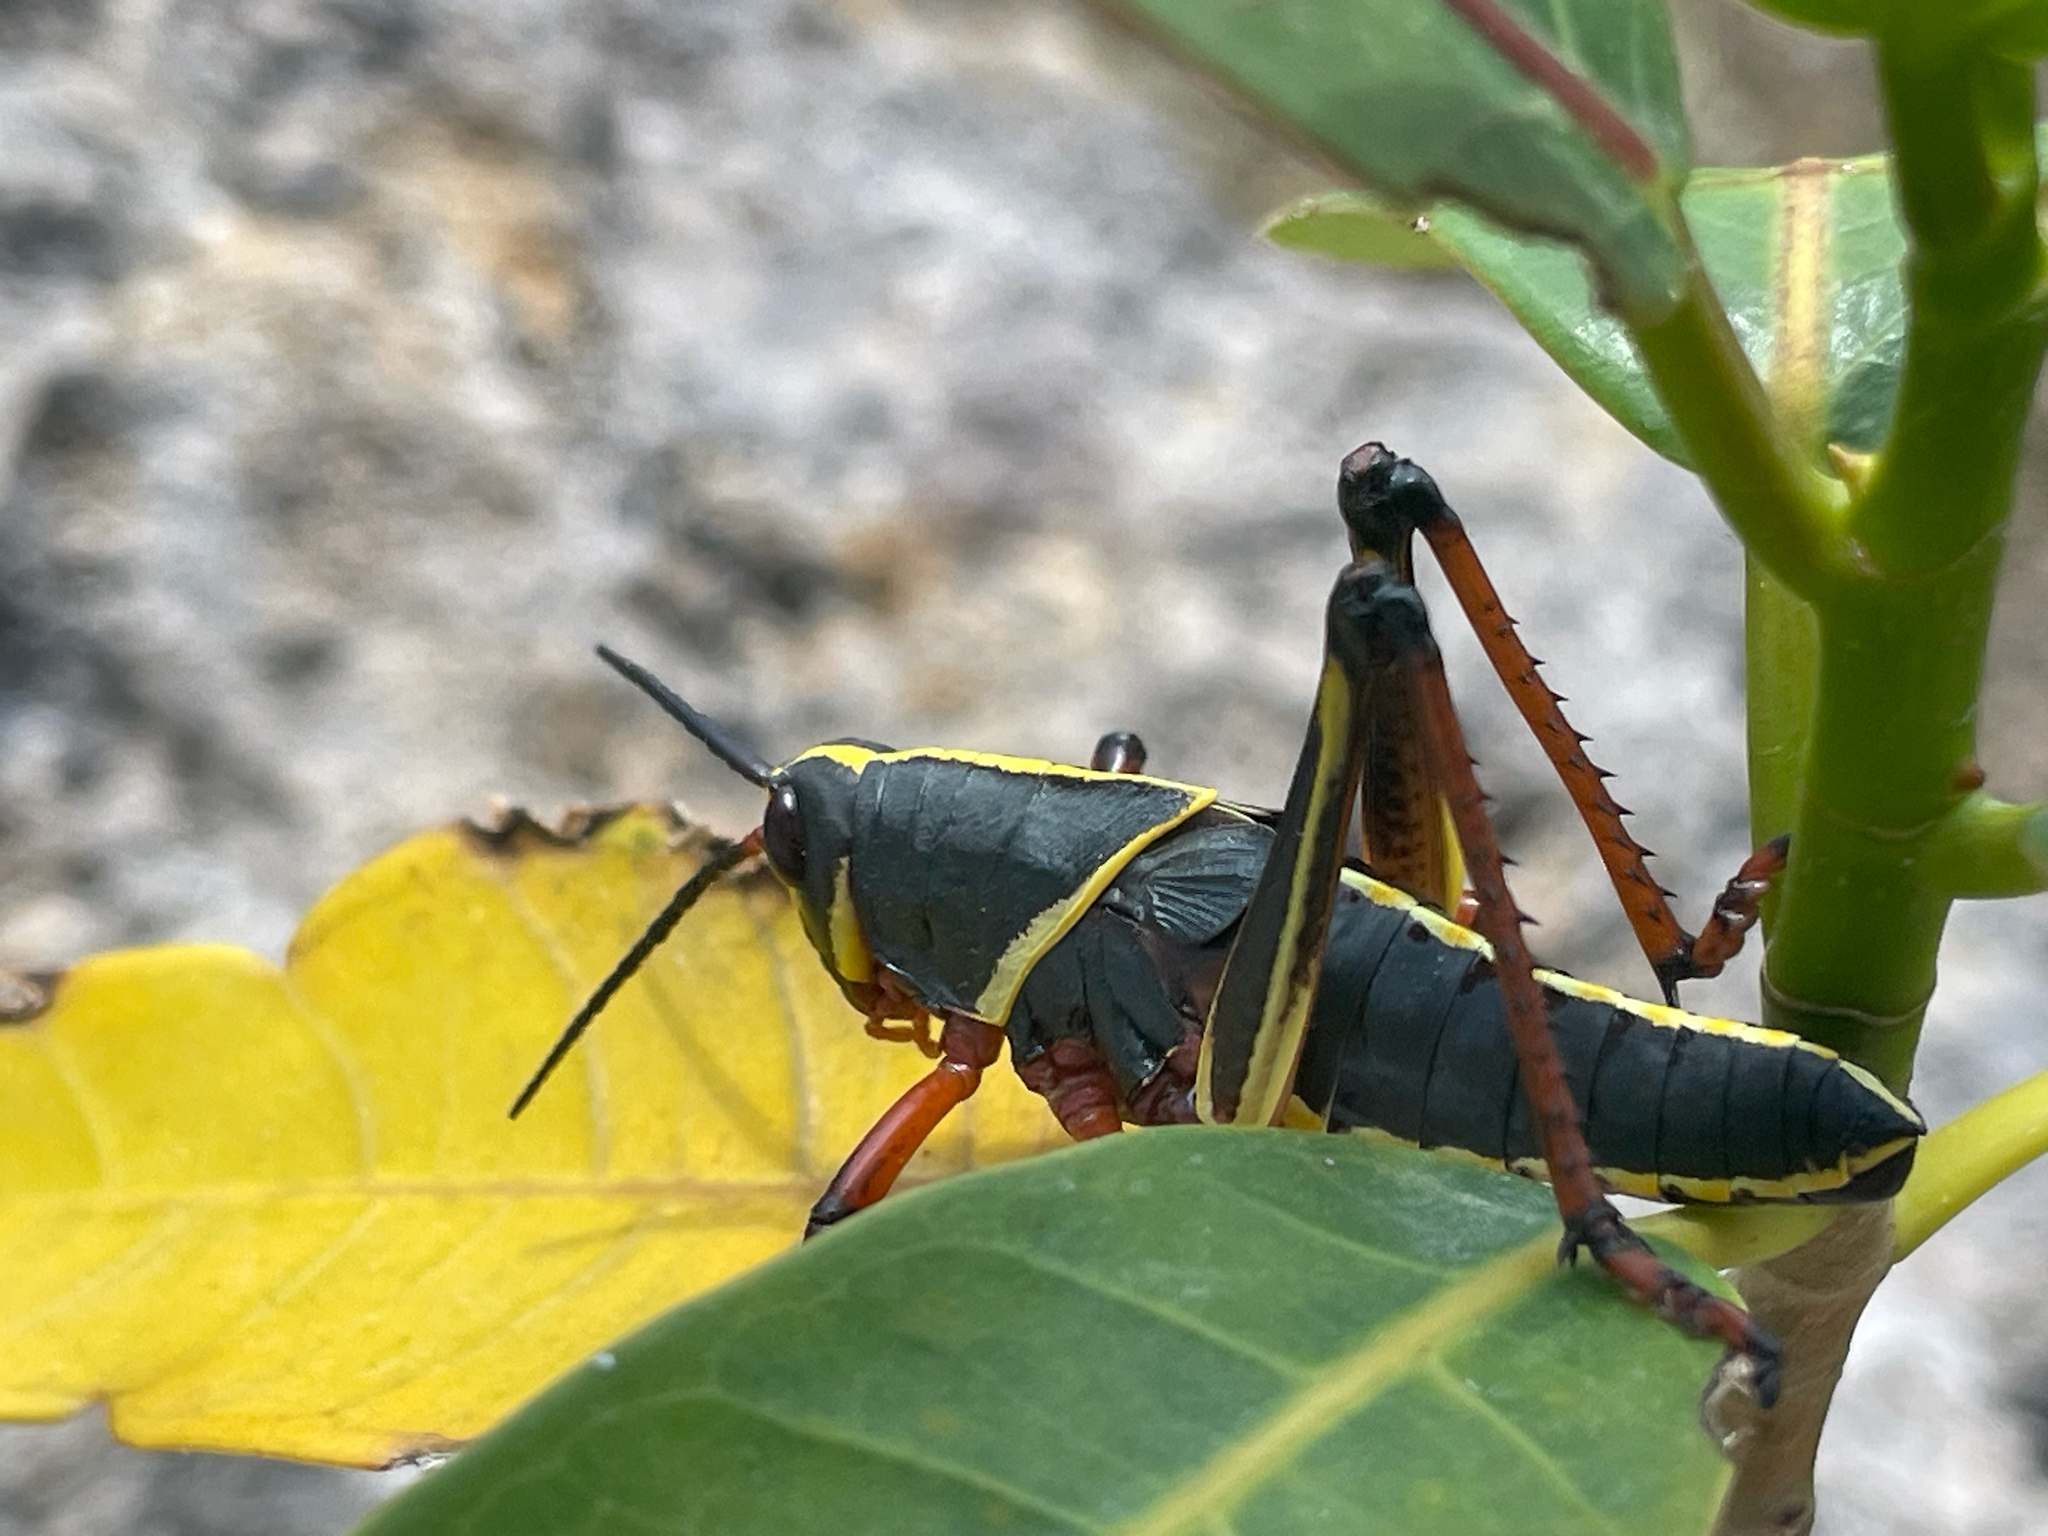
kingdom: Animalia
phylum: Arthropoda
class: Insecta
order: Orthoptera
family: Romaleidae
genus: Romalea
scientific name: Romalea microptera
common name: Eastern lubber grasshopper
